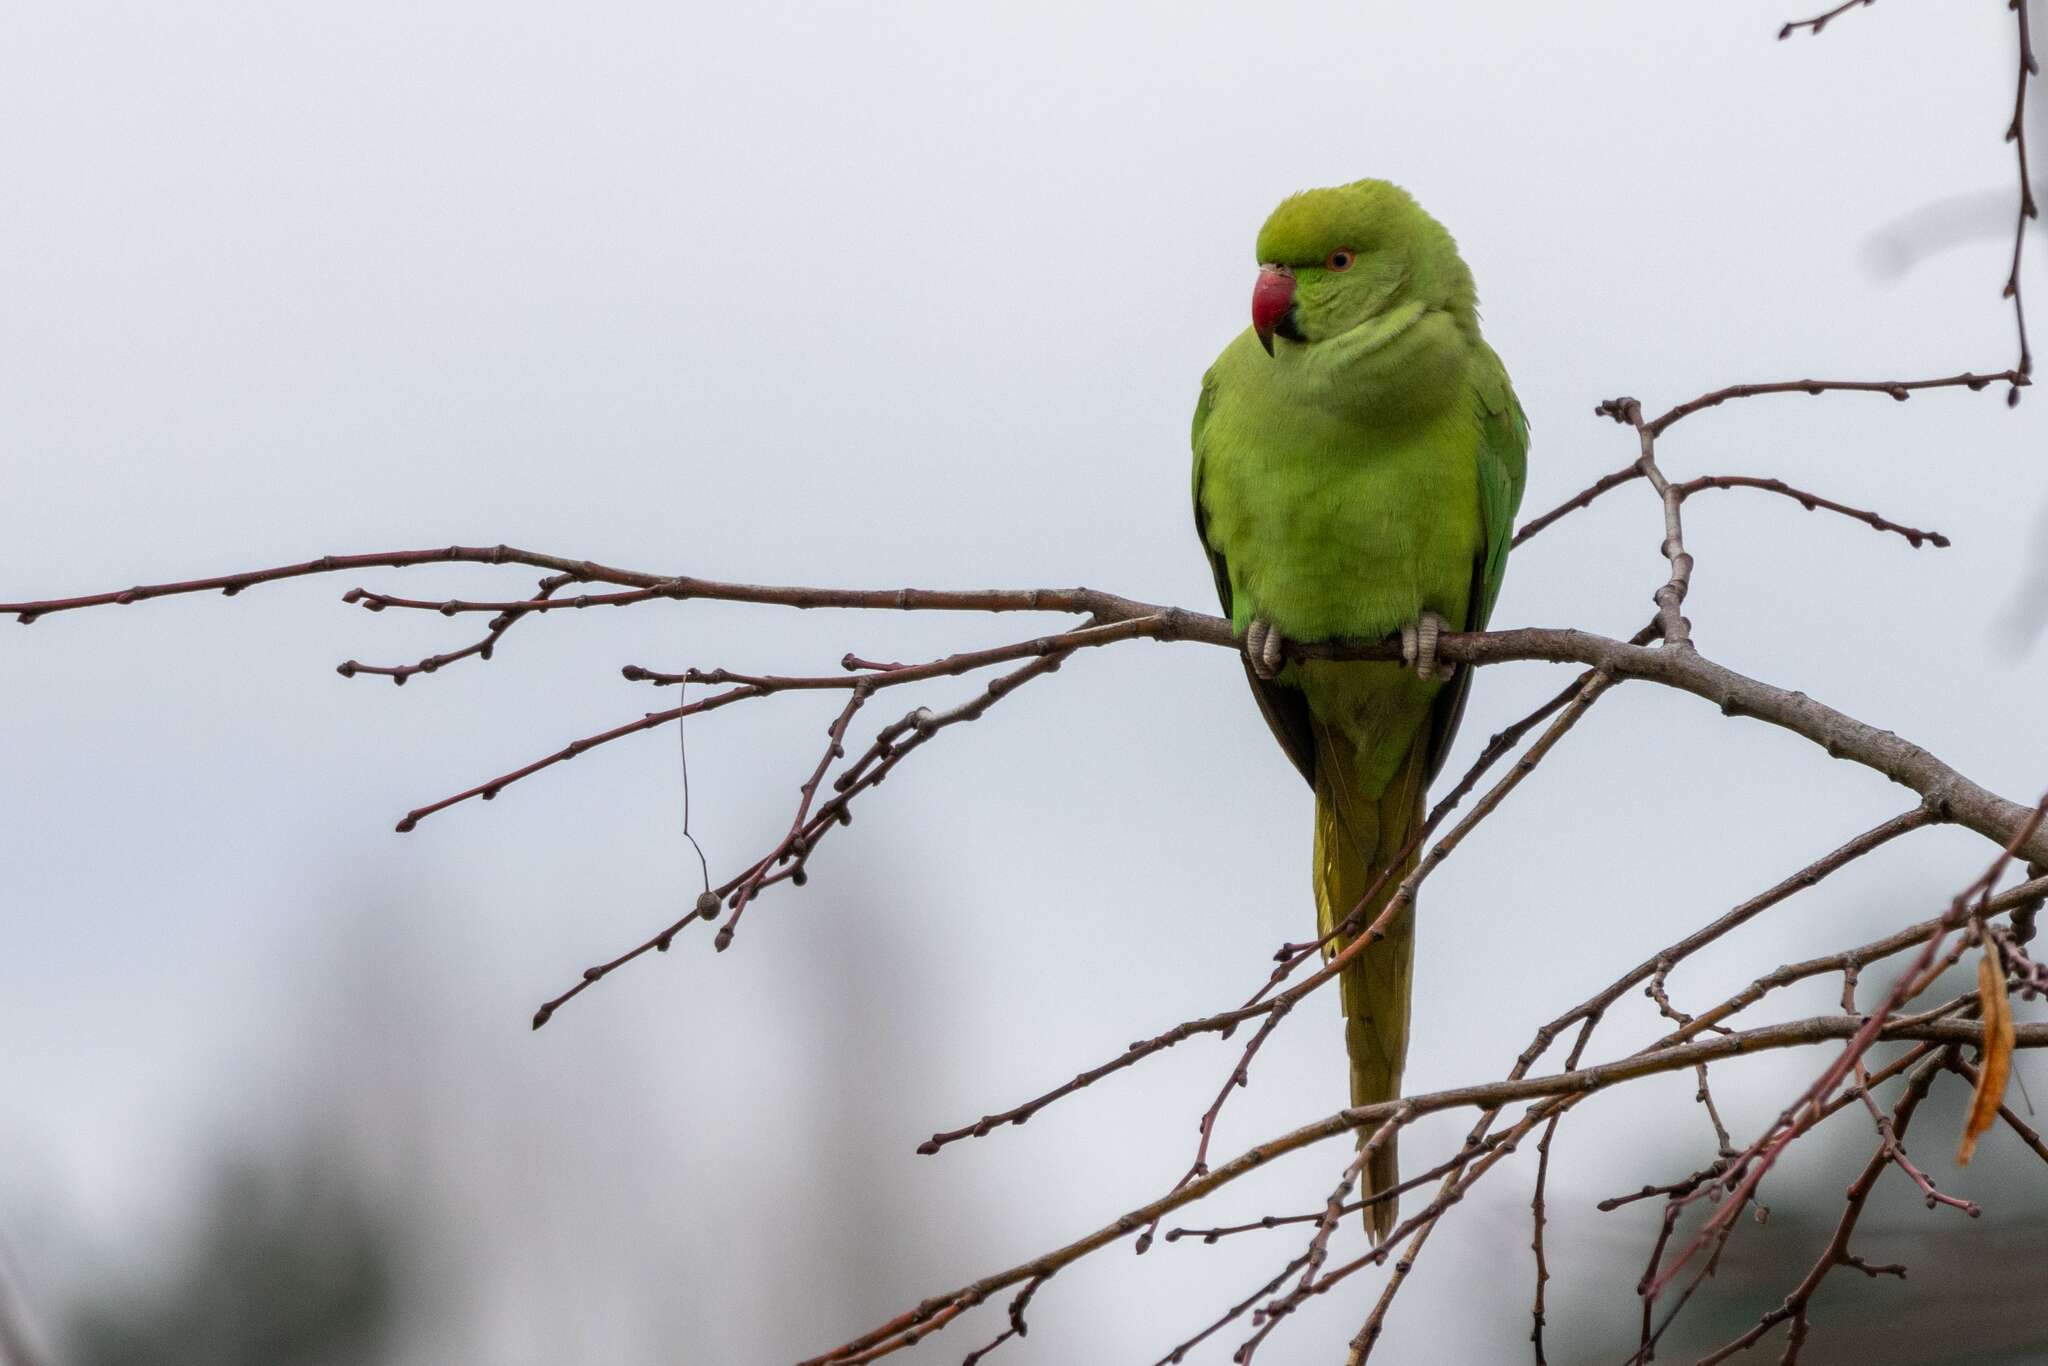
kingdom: Animalia
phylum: Chordata
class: Aves
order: Psittaciformes
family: Psittacidae
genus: Psittacula
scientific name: Psittacula krameri
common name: Rose-ringed parakeet
